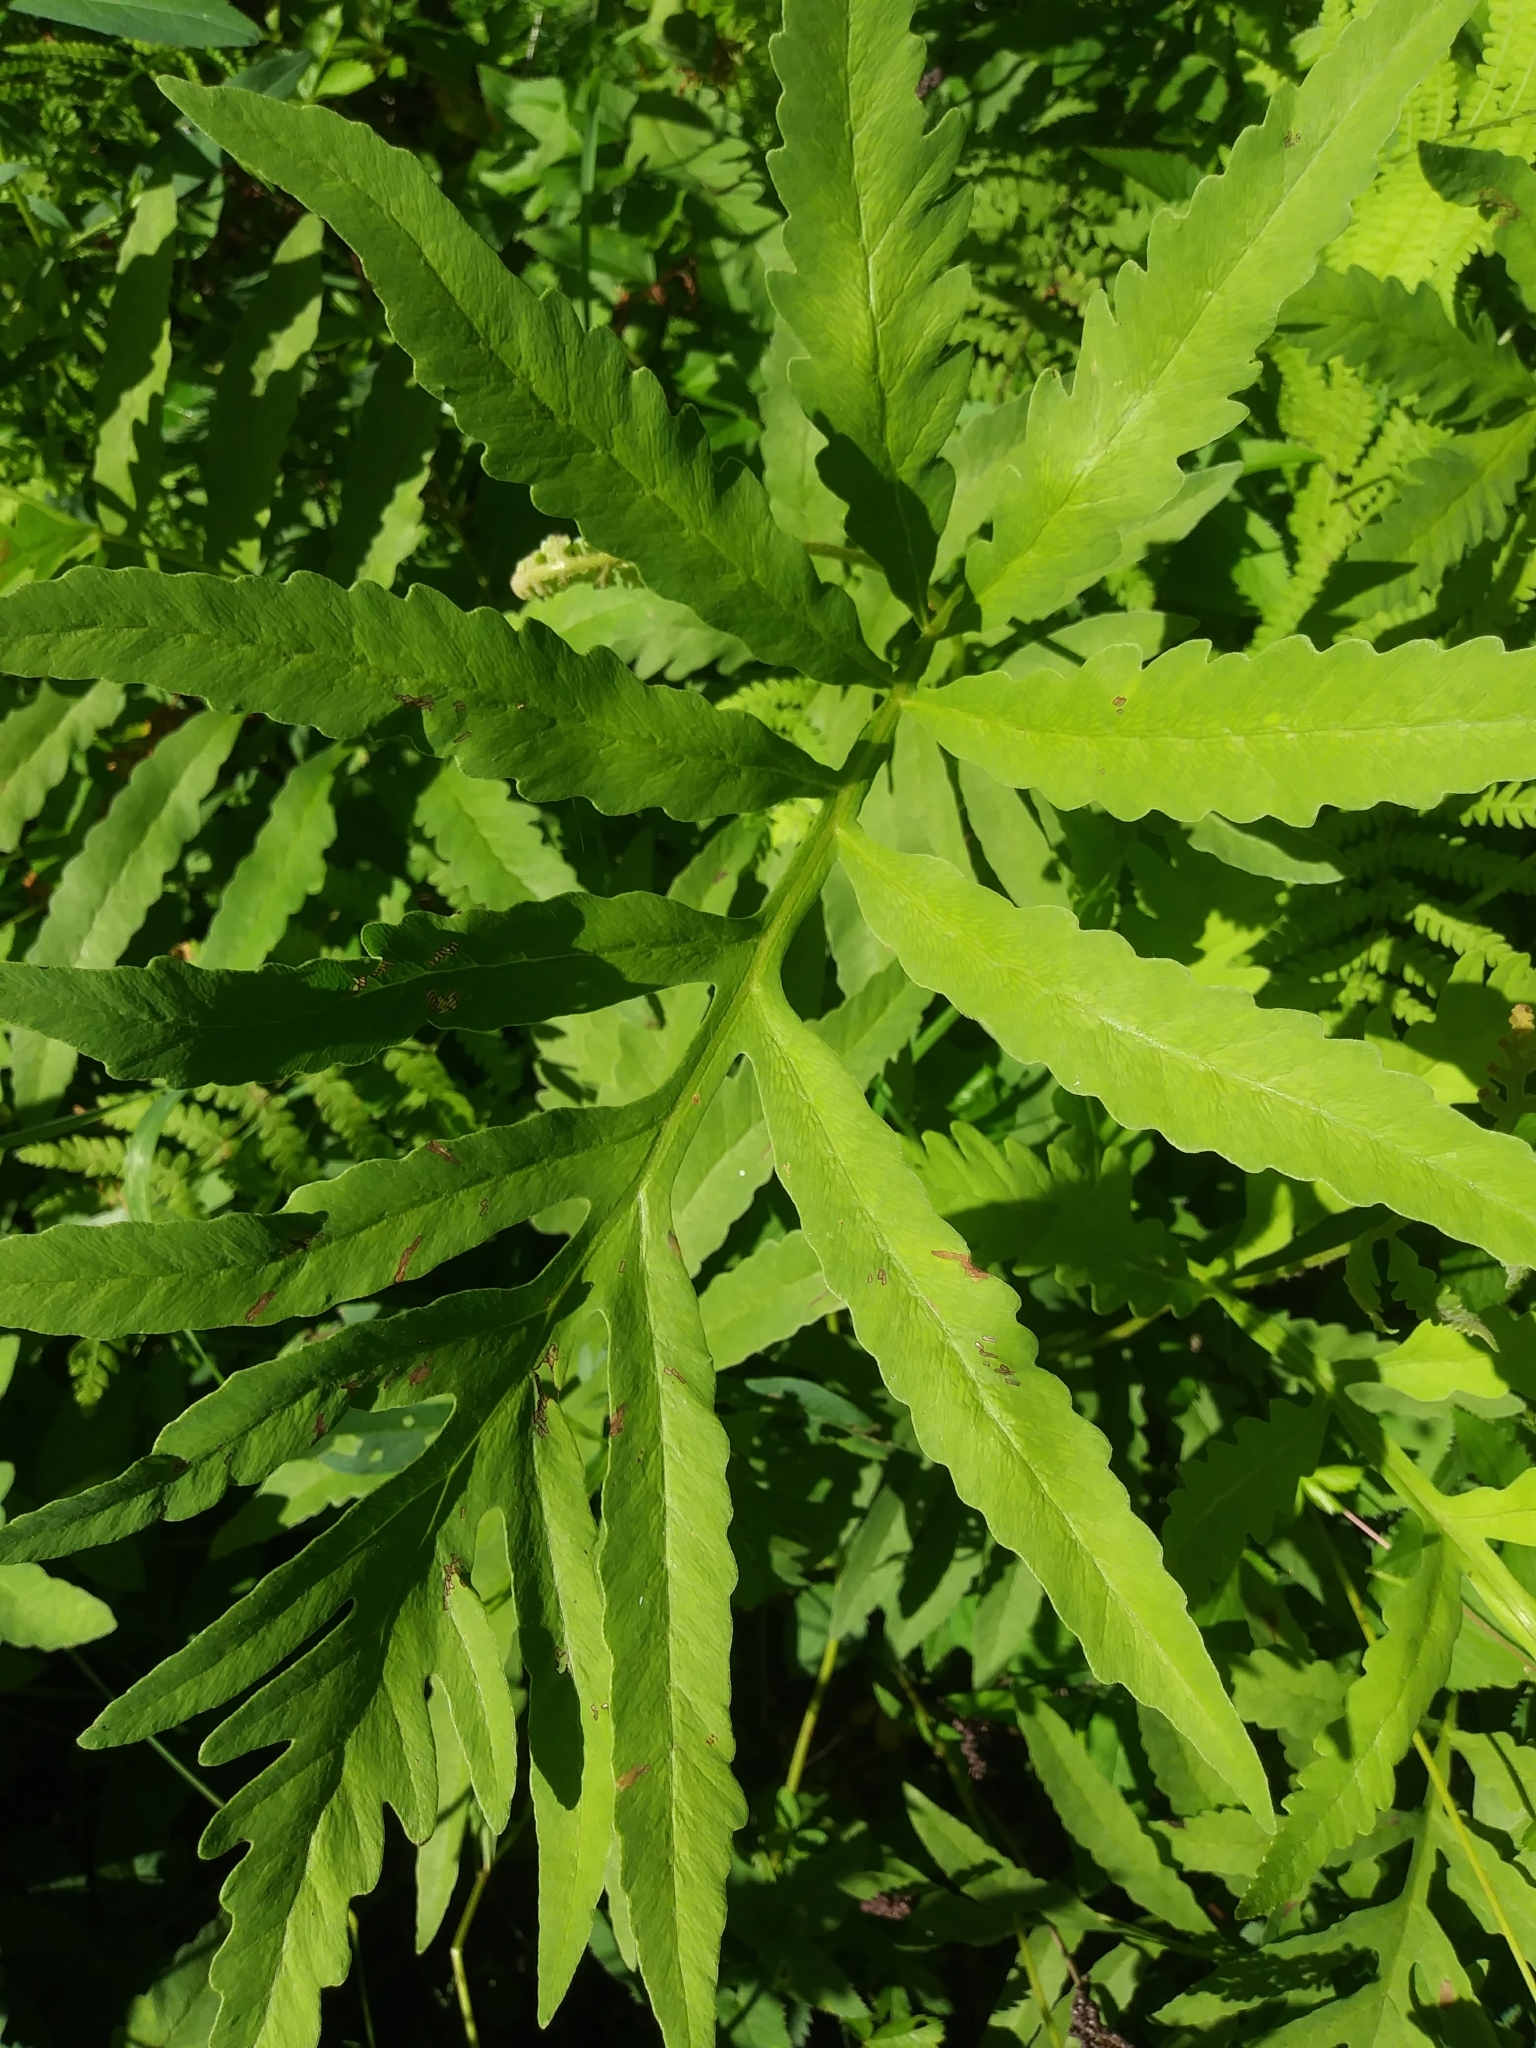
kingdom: Plantae
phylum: Tracheophyta
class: Polypodiopsida
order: Polypodiales
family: Onocleaceae
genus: Onoclea
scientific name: Onoclea sensibilis
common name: Sensitive fern
